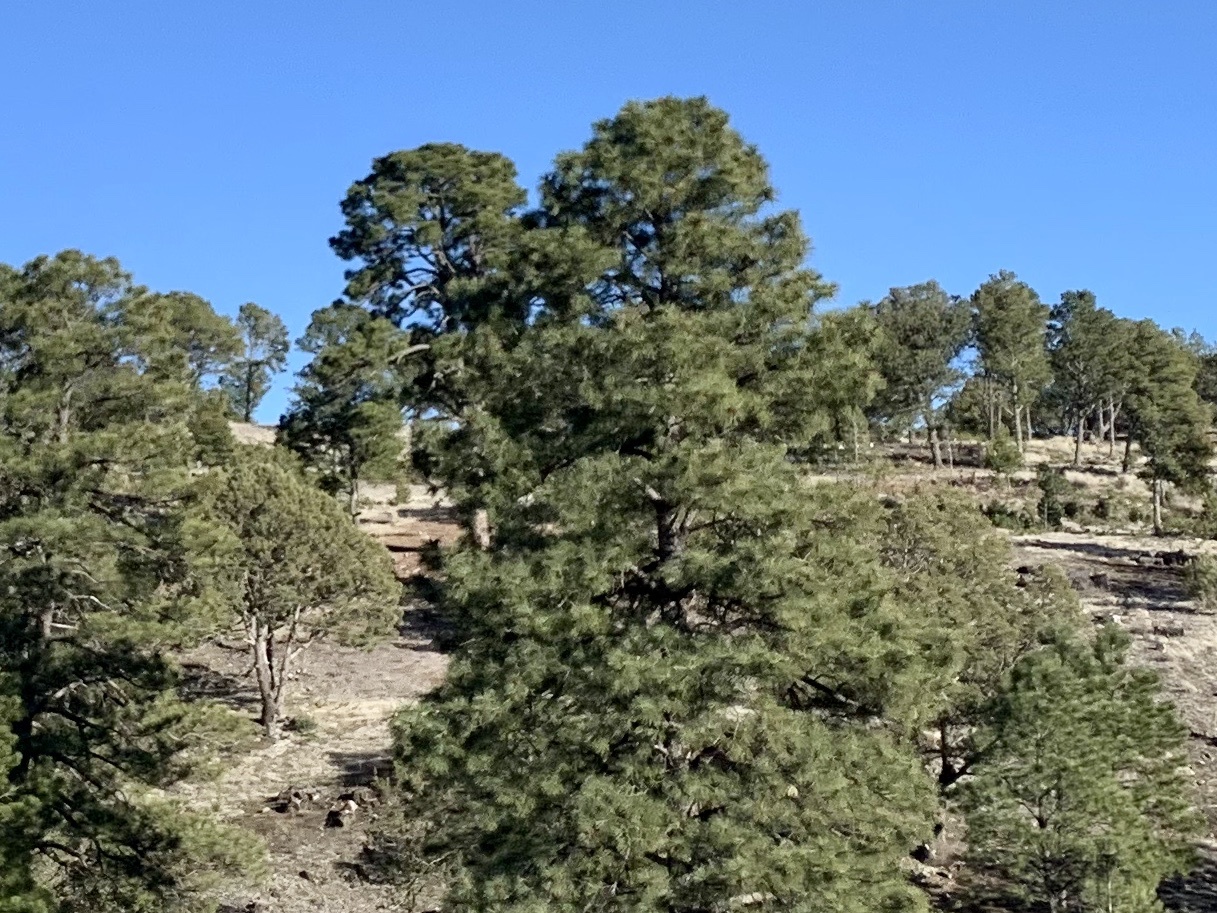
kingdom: Plantae
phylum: Tracheophyta
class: Pinopsida
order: Pinales
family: Pinaceae
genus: Pinus
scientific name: Pinus ponderosa
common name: Western yellow-pine
